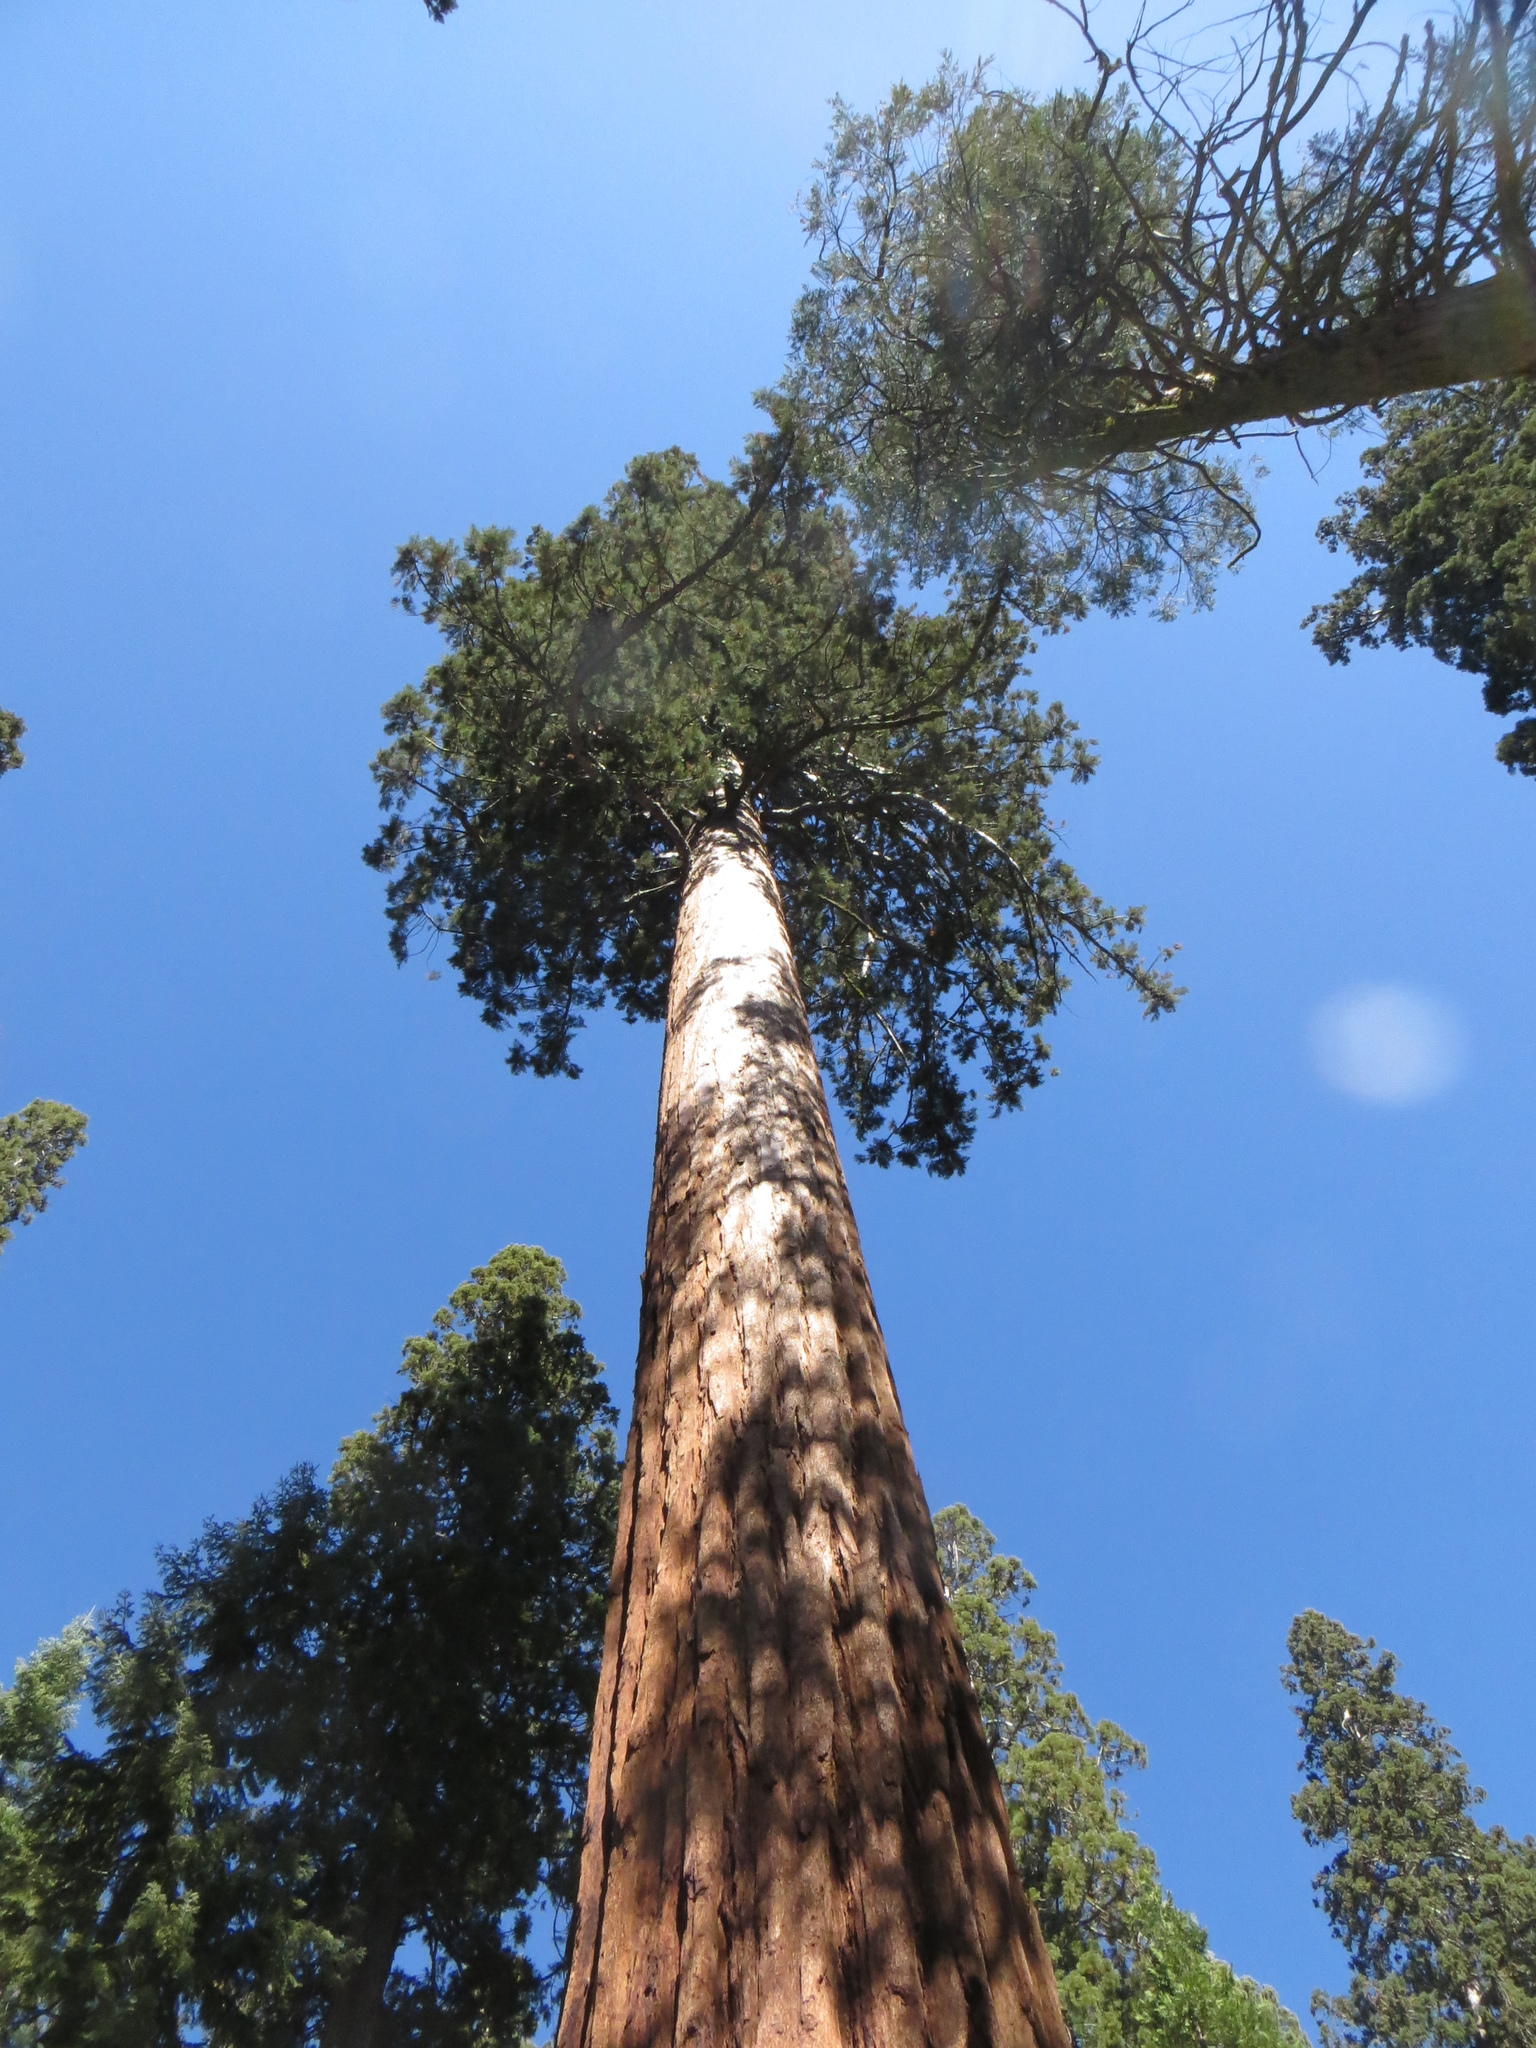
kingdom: Plantae
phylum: Tracheophyta
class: Pinopsida
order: Pinales
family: Cupressaceae
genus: Sequoiadendron
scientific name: Sequoiadendron giganteum
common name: Wellingtonia
